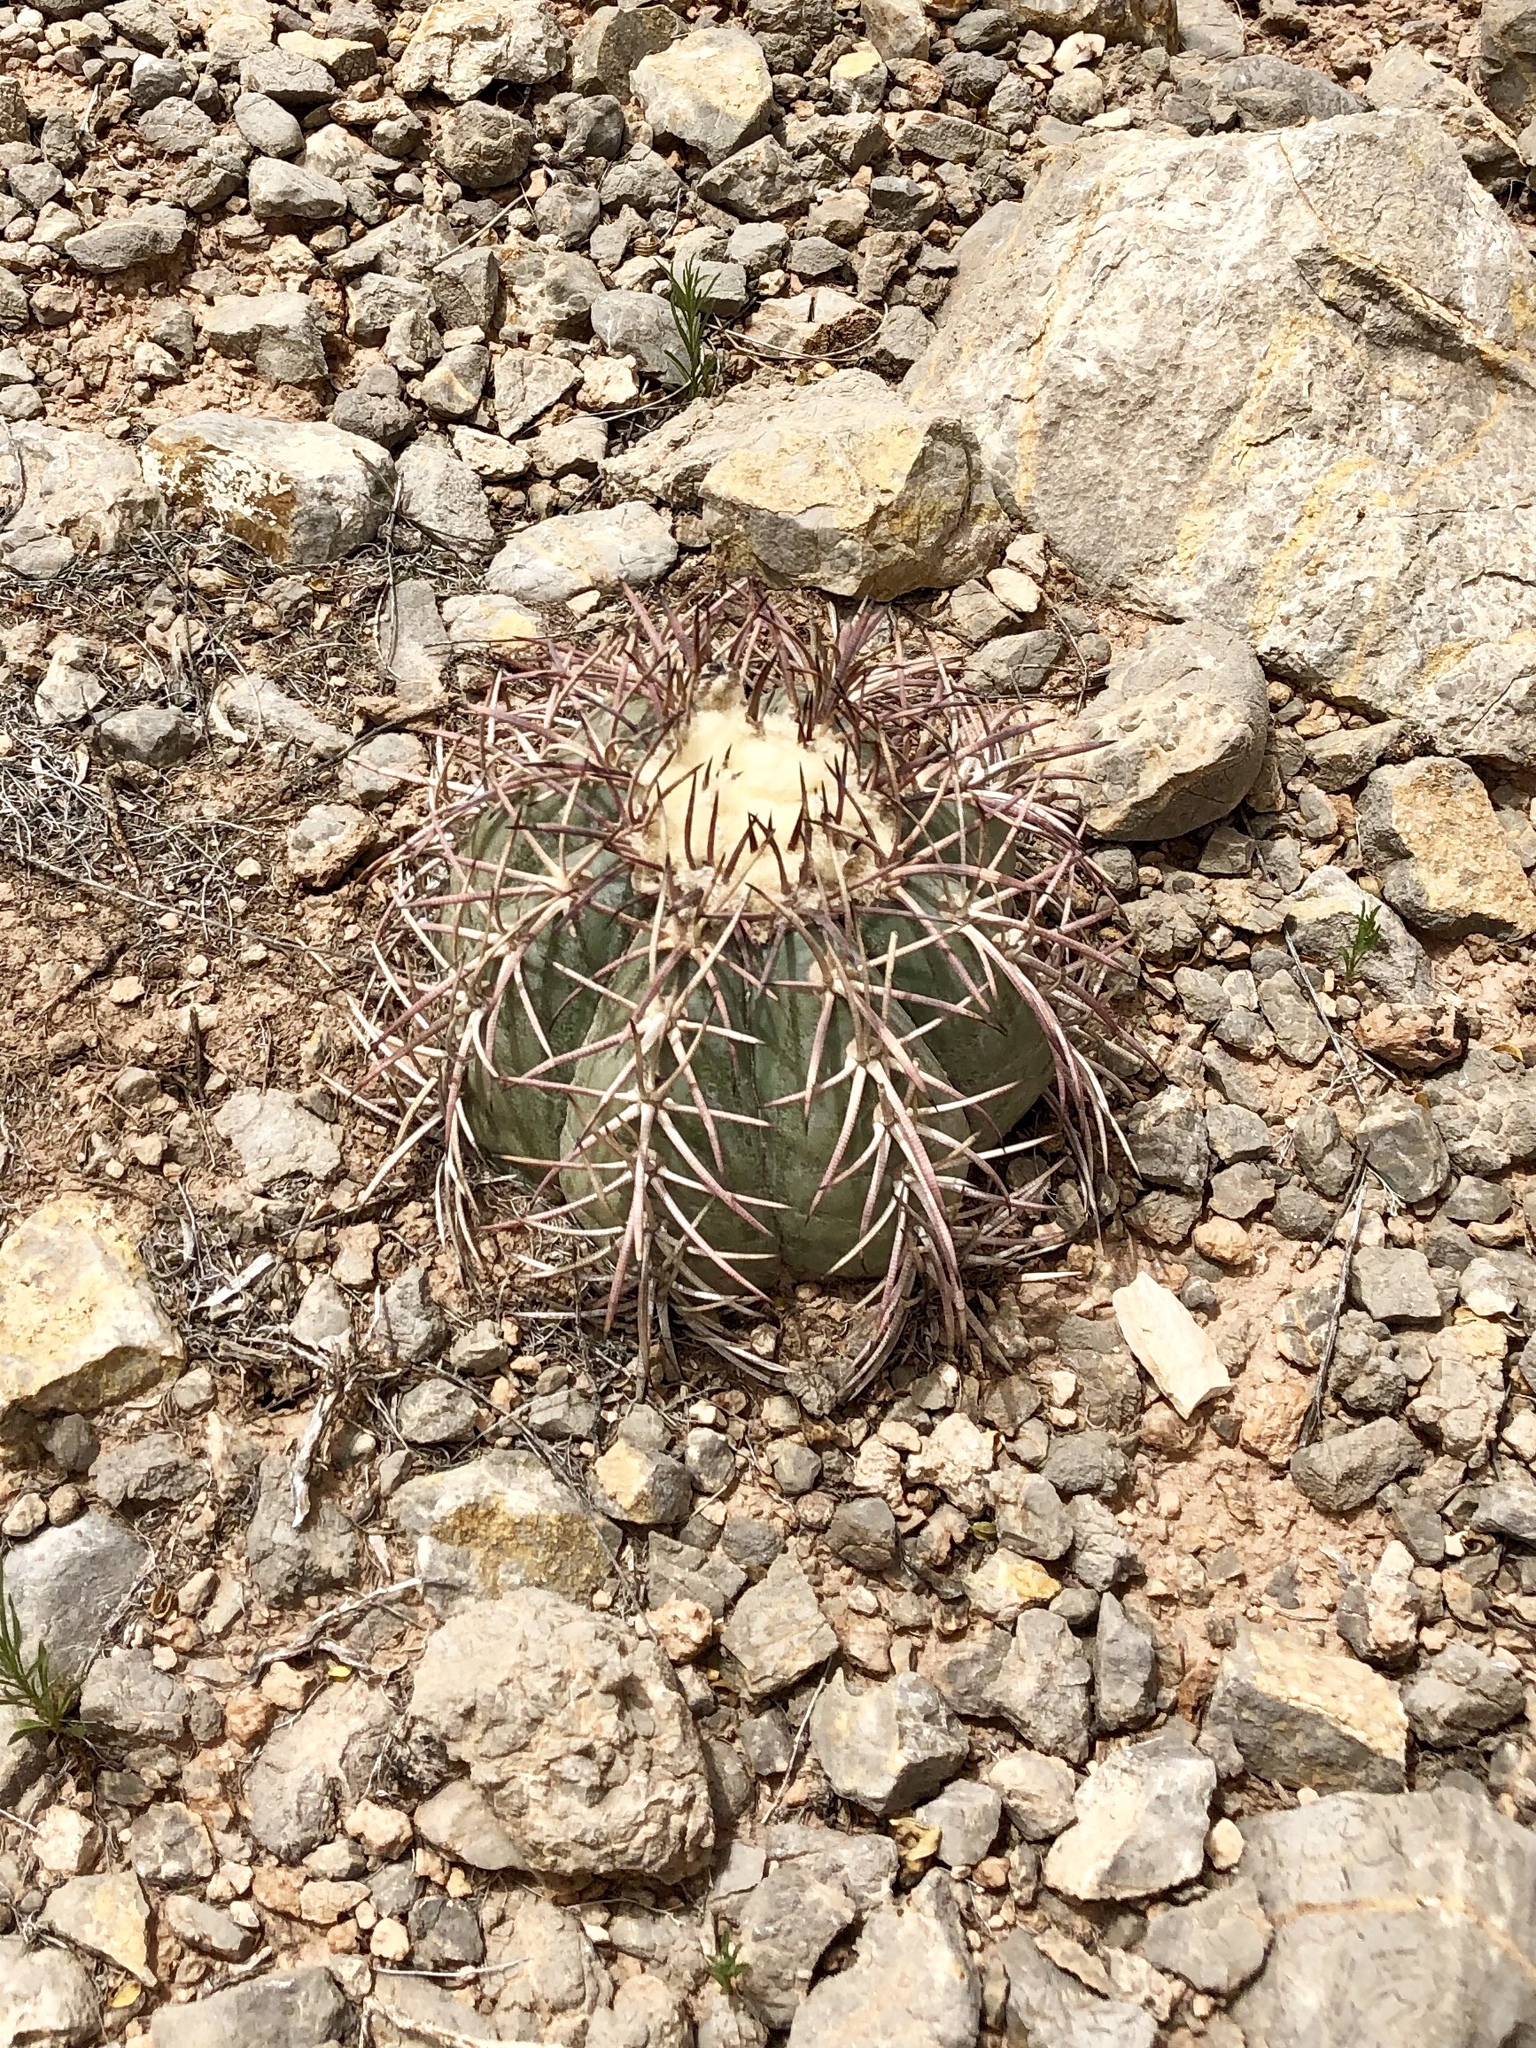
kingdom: Plantae
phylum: Tracheophyta
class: Magnoliopsida
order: Caryophyllales
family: Cactaceae
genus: Echinocactus
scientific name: Echinocactus horizonthalonius
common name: Devilshead
